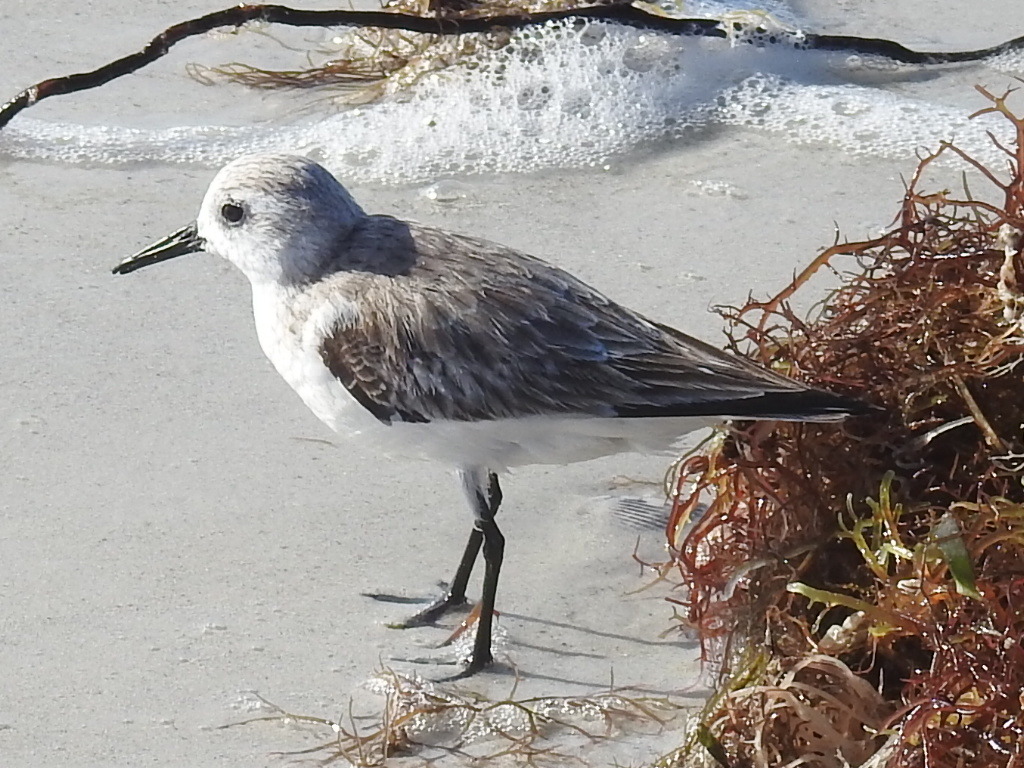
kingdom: Animalia
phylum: Chordata
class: Aves
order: Charadriiformes
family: Scolopacidae
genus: Calidris
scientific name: Calidris alba
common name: Sanderling
